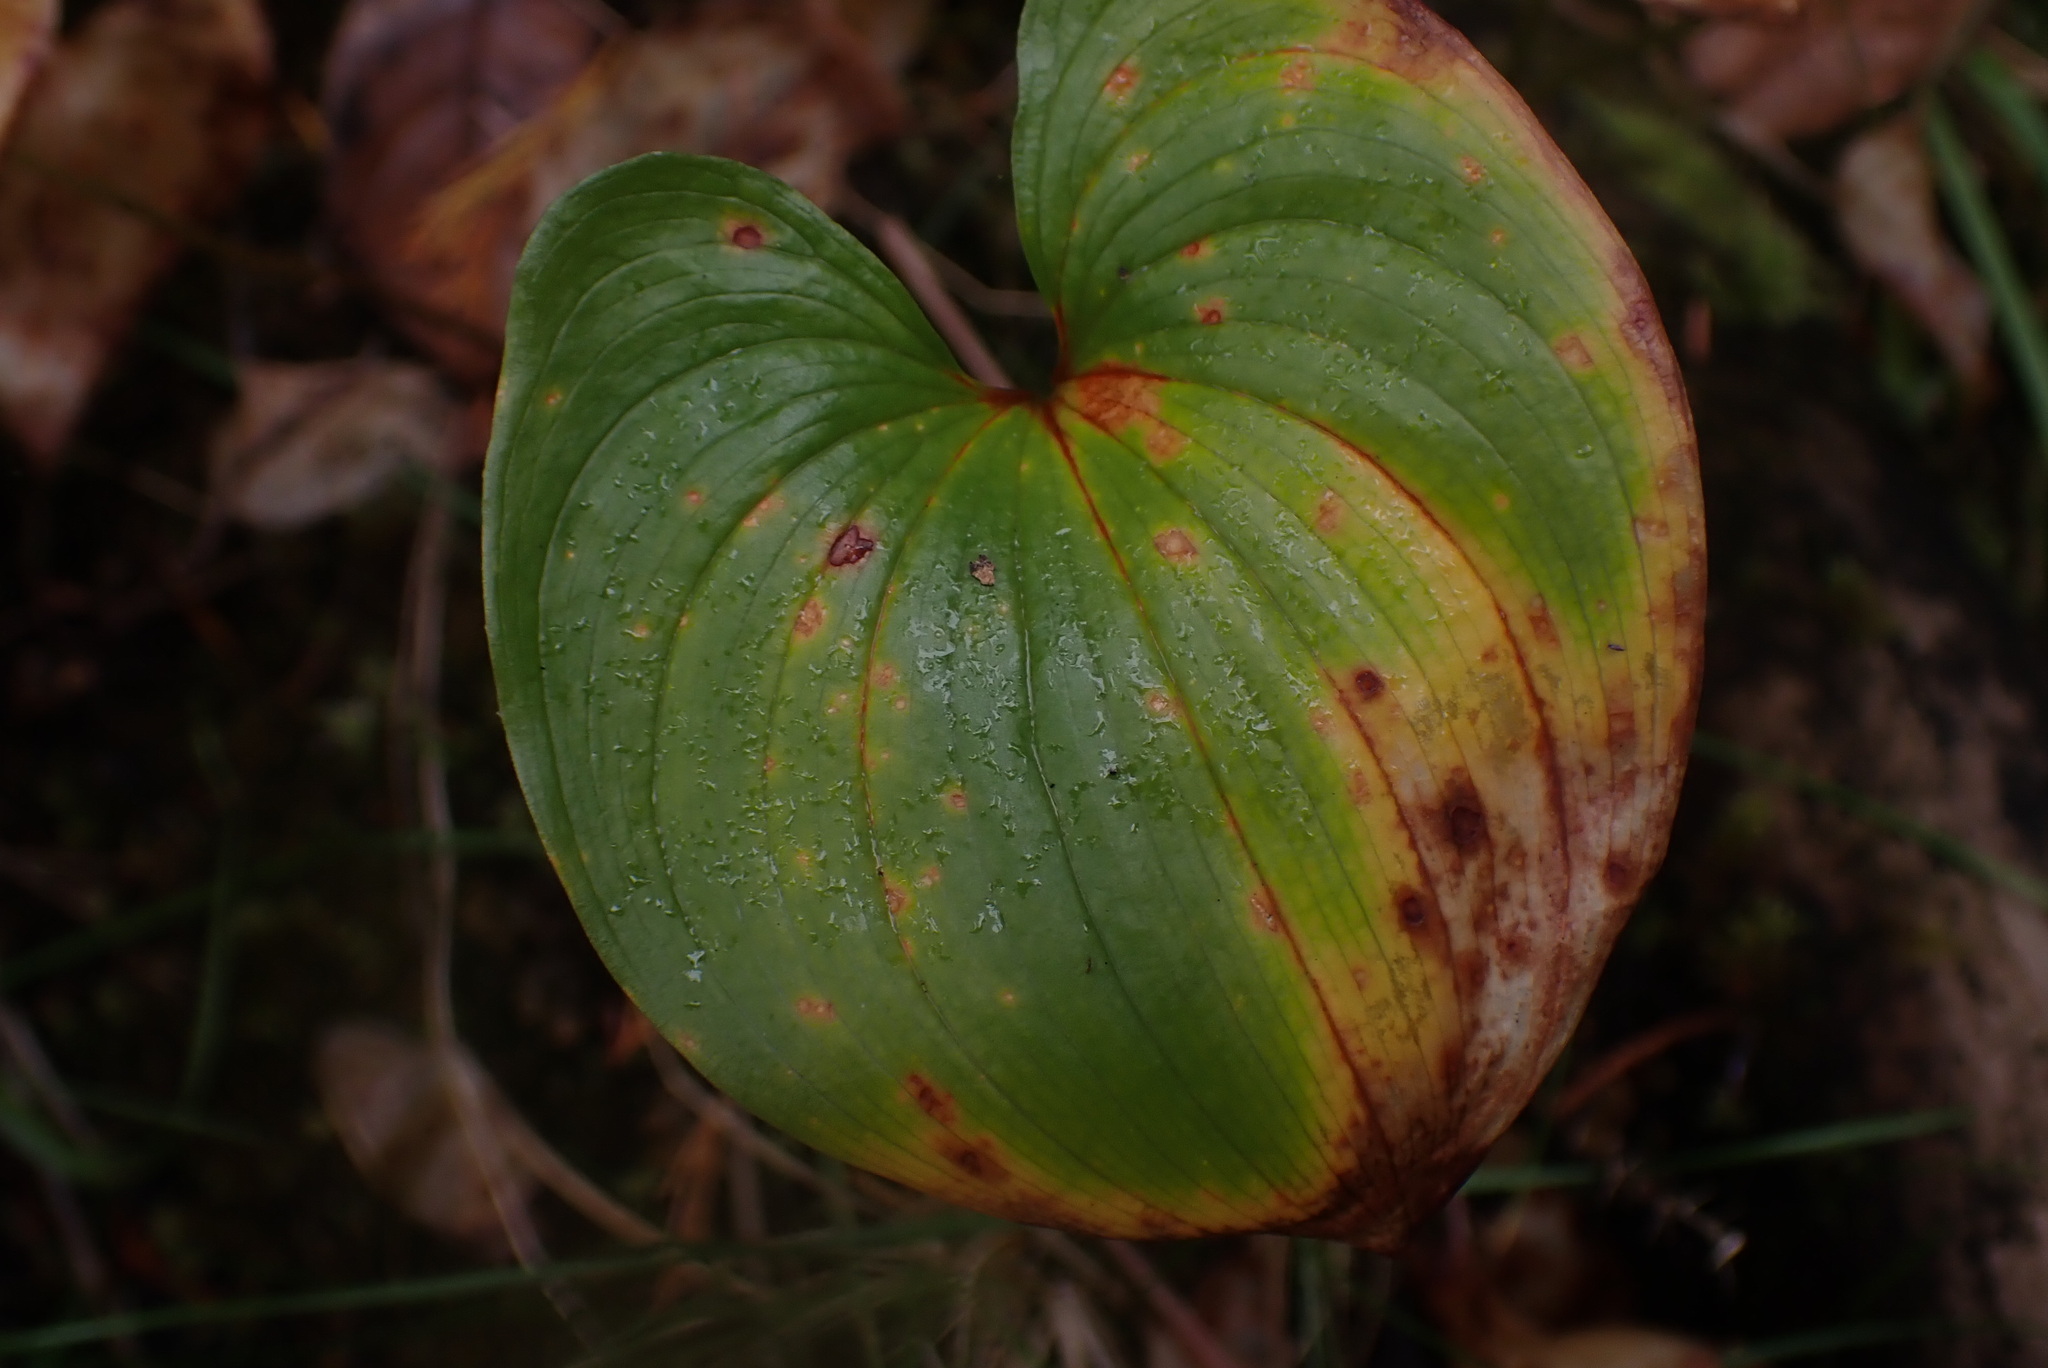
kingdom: Plantae
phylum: Tracheophyta
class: Liliopsida
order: Asparagales
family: Asparagaceae
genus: Maianthemum
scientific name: Maianthemum dilatatum
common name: False lily-of-the-valley
